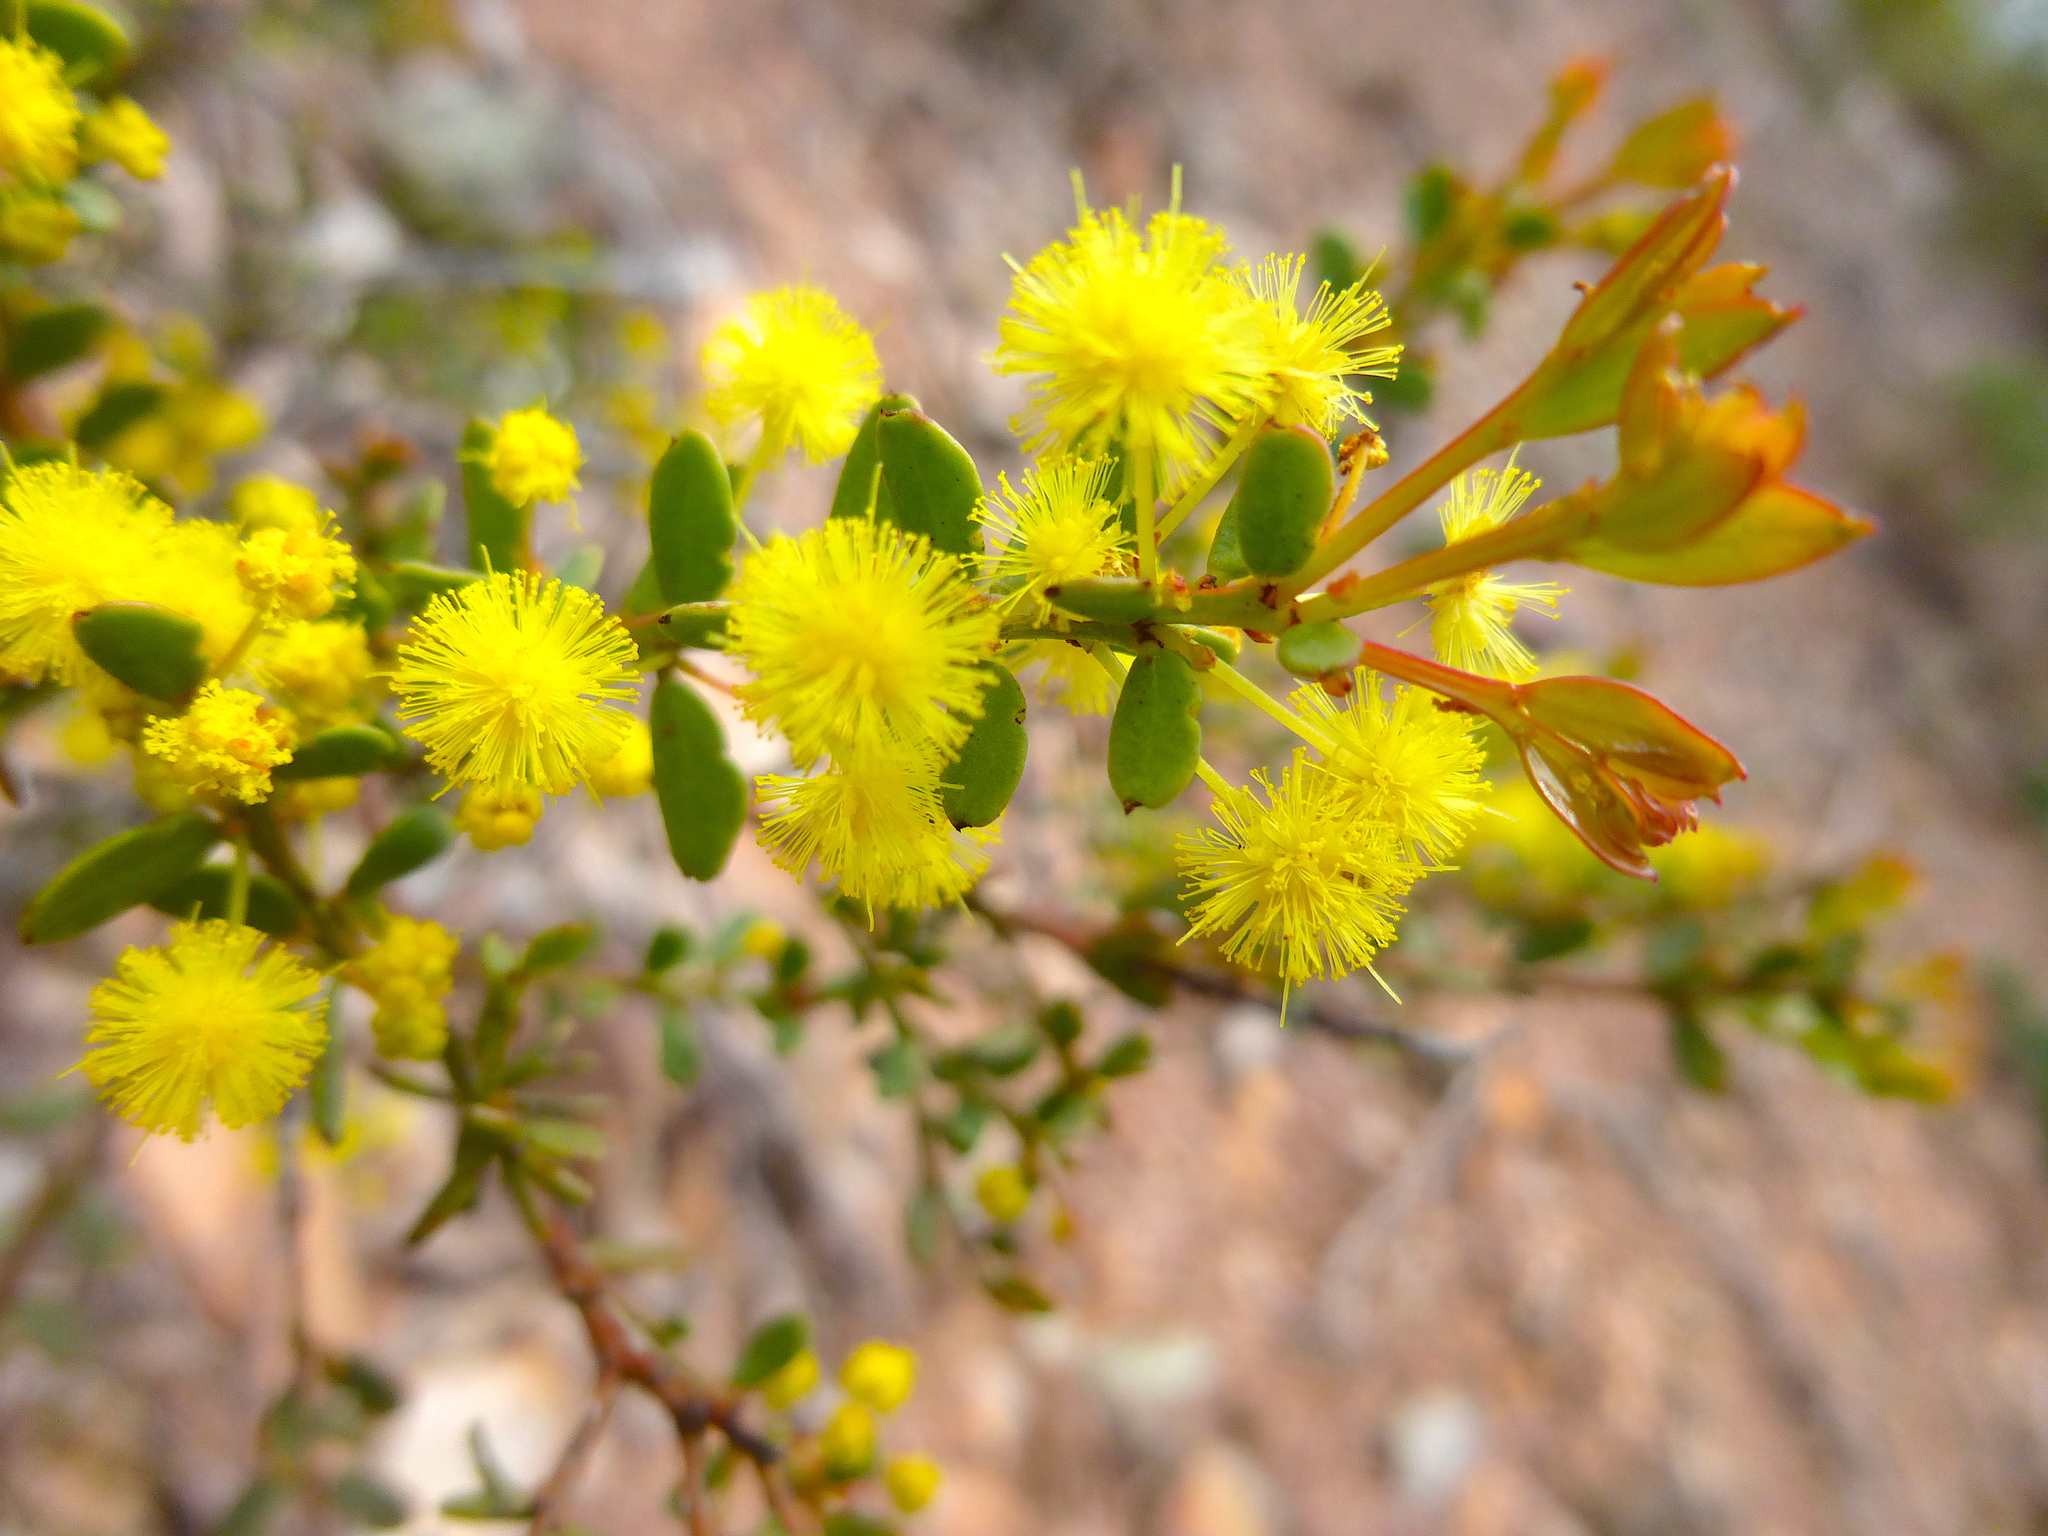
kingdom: Plantae
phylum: Tracheophyta
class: Magnoliopsida
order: Fabales
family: Fabaceae
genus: Acacia
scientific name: Acacia acinacea
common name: Gold-dust acacia
